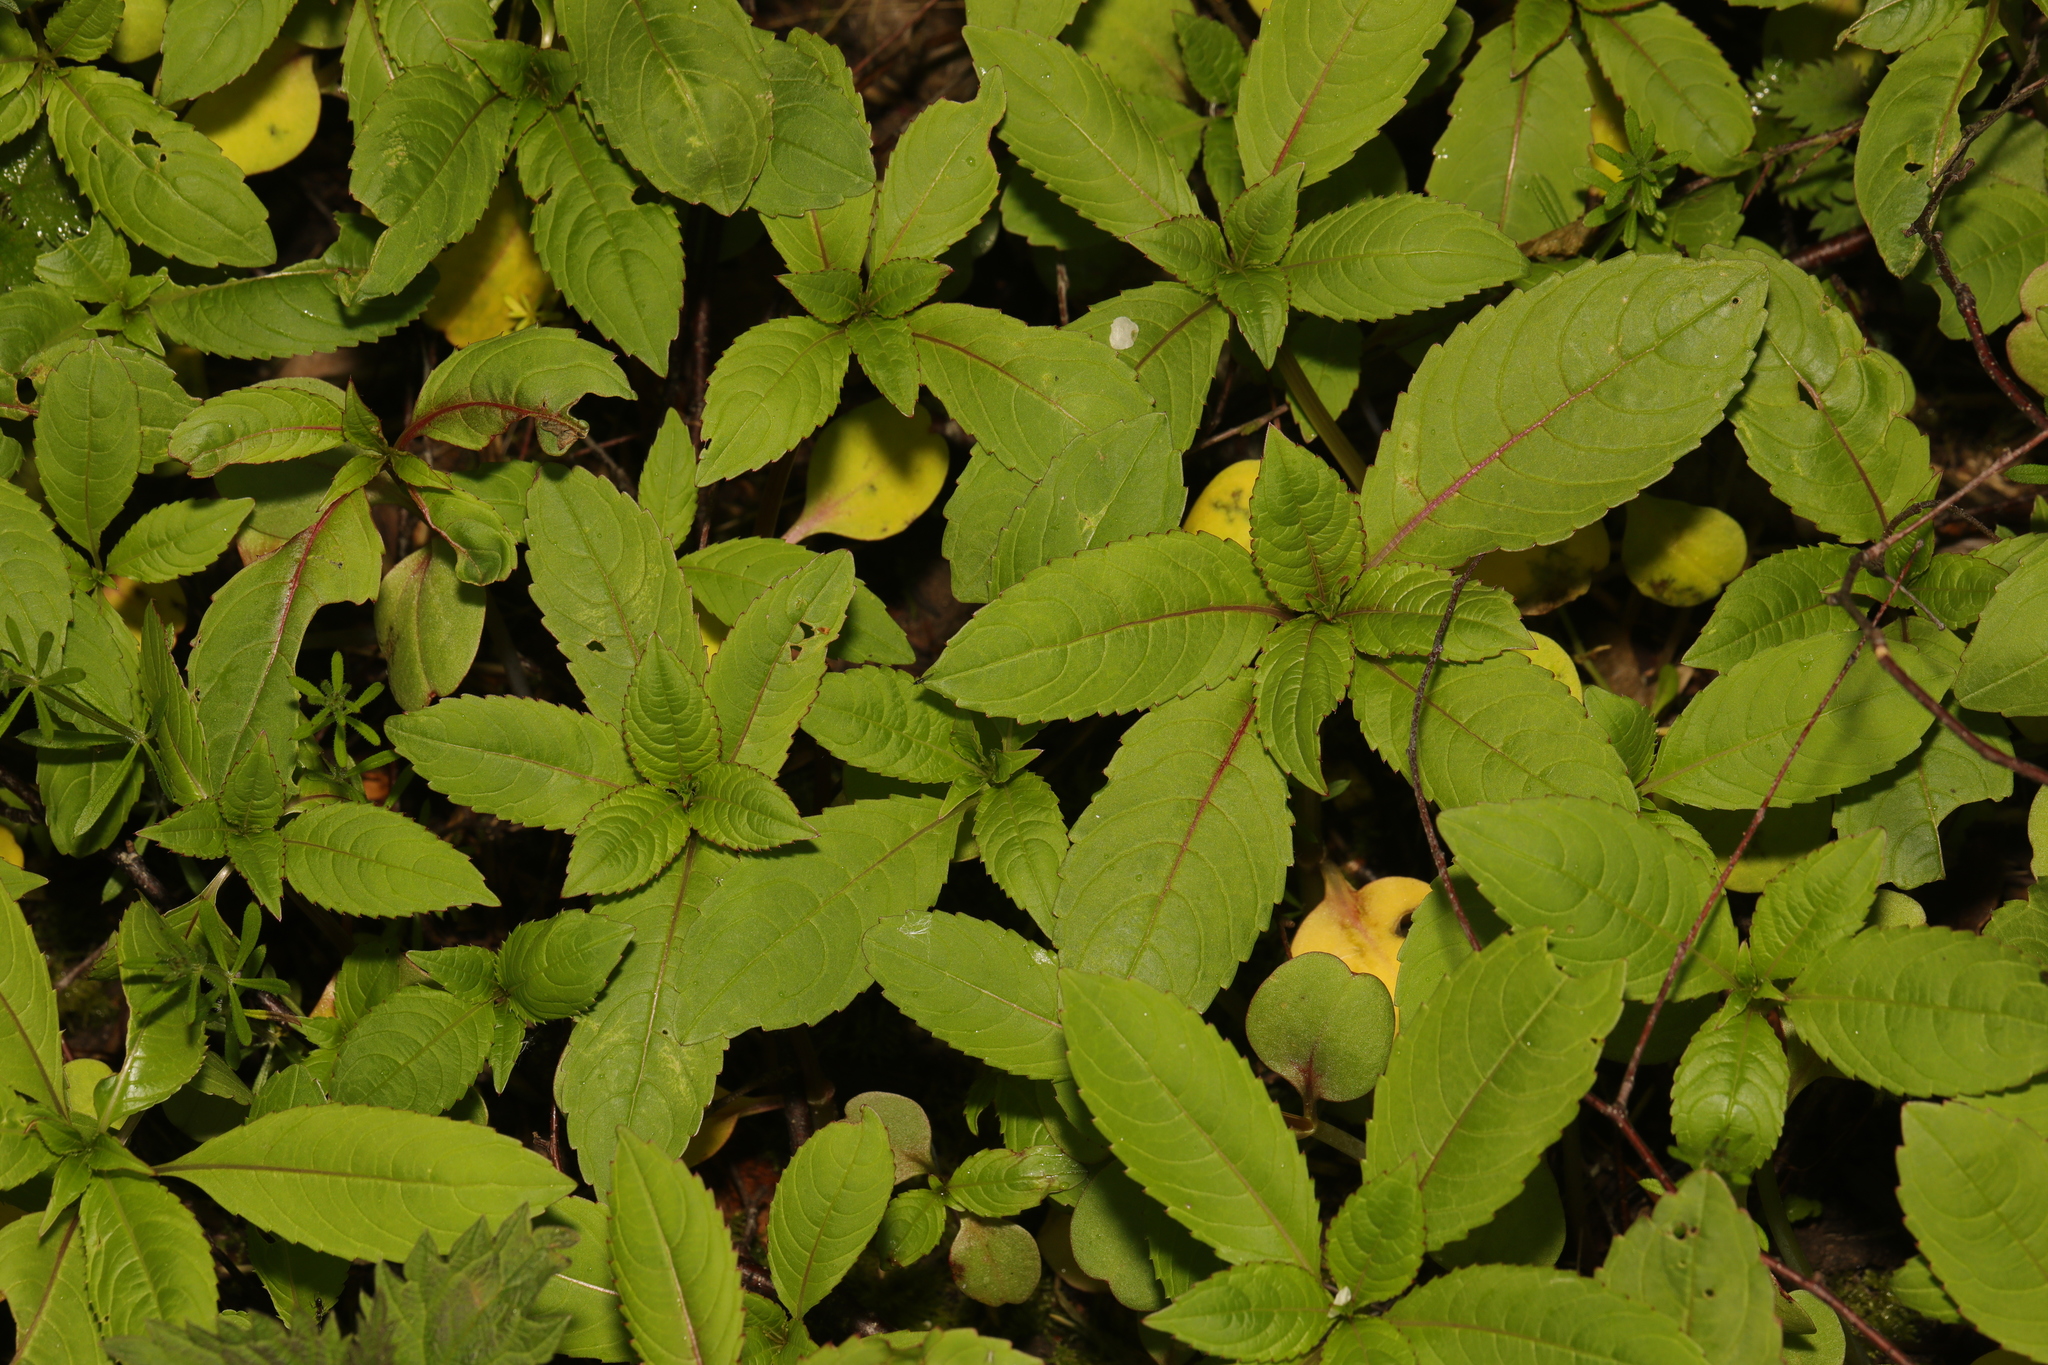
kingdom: Plantae
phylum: Tracheophyta
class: Magnoliopsida
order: Ericales
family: Balsaminaceae
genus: Impatiens
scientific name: Impatiens glandulifera
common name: Himalayan balsam
